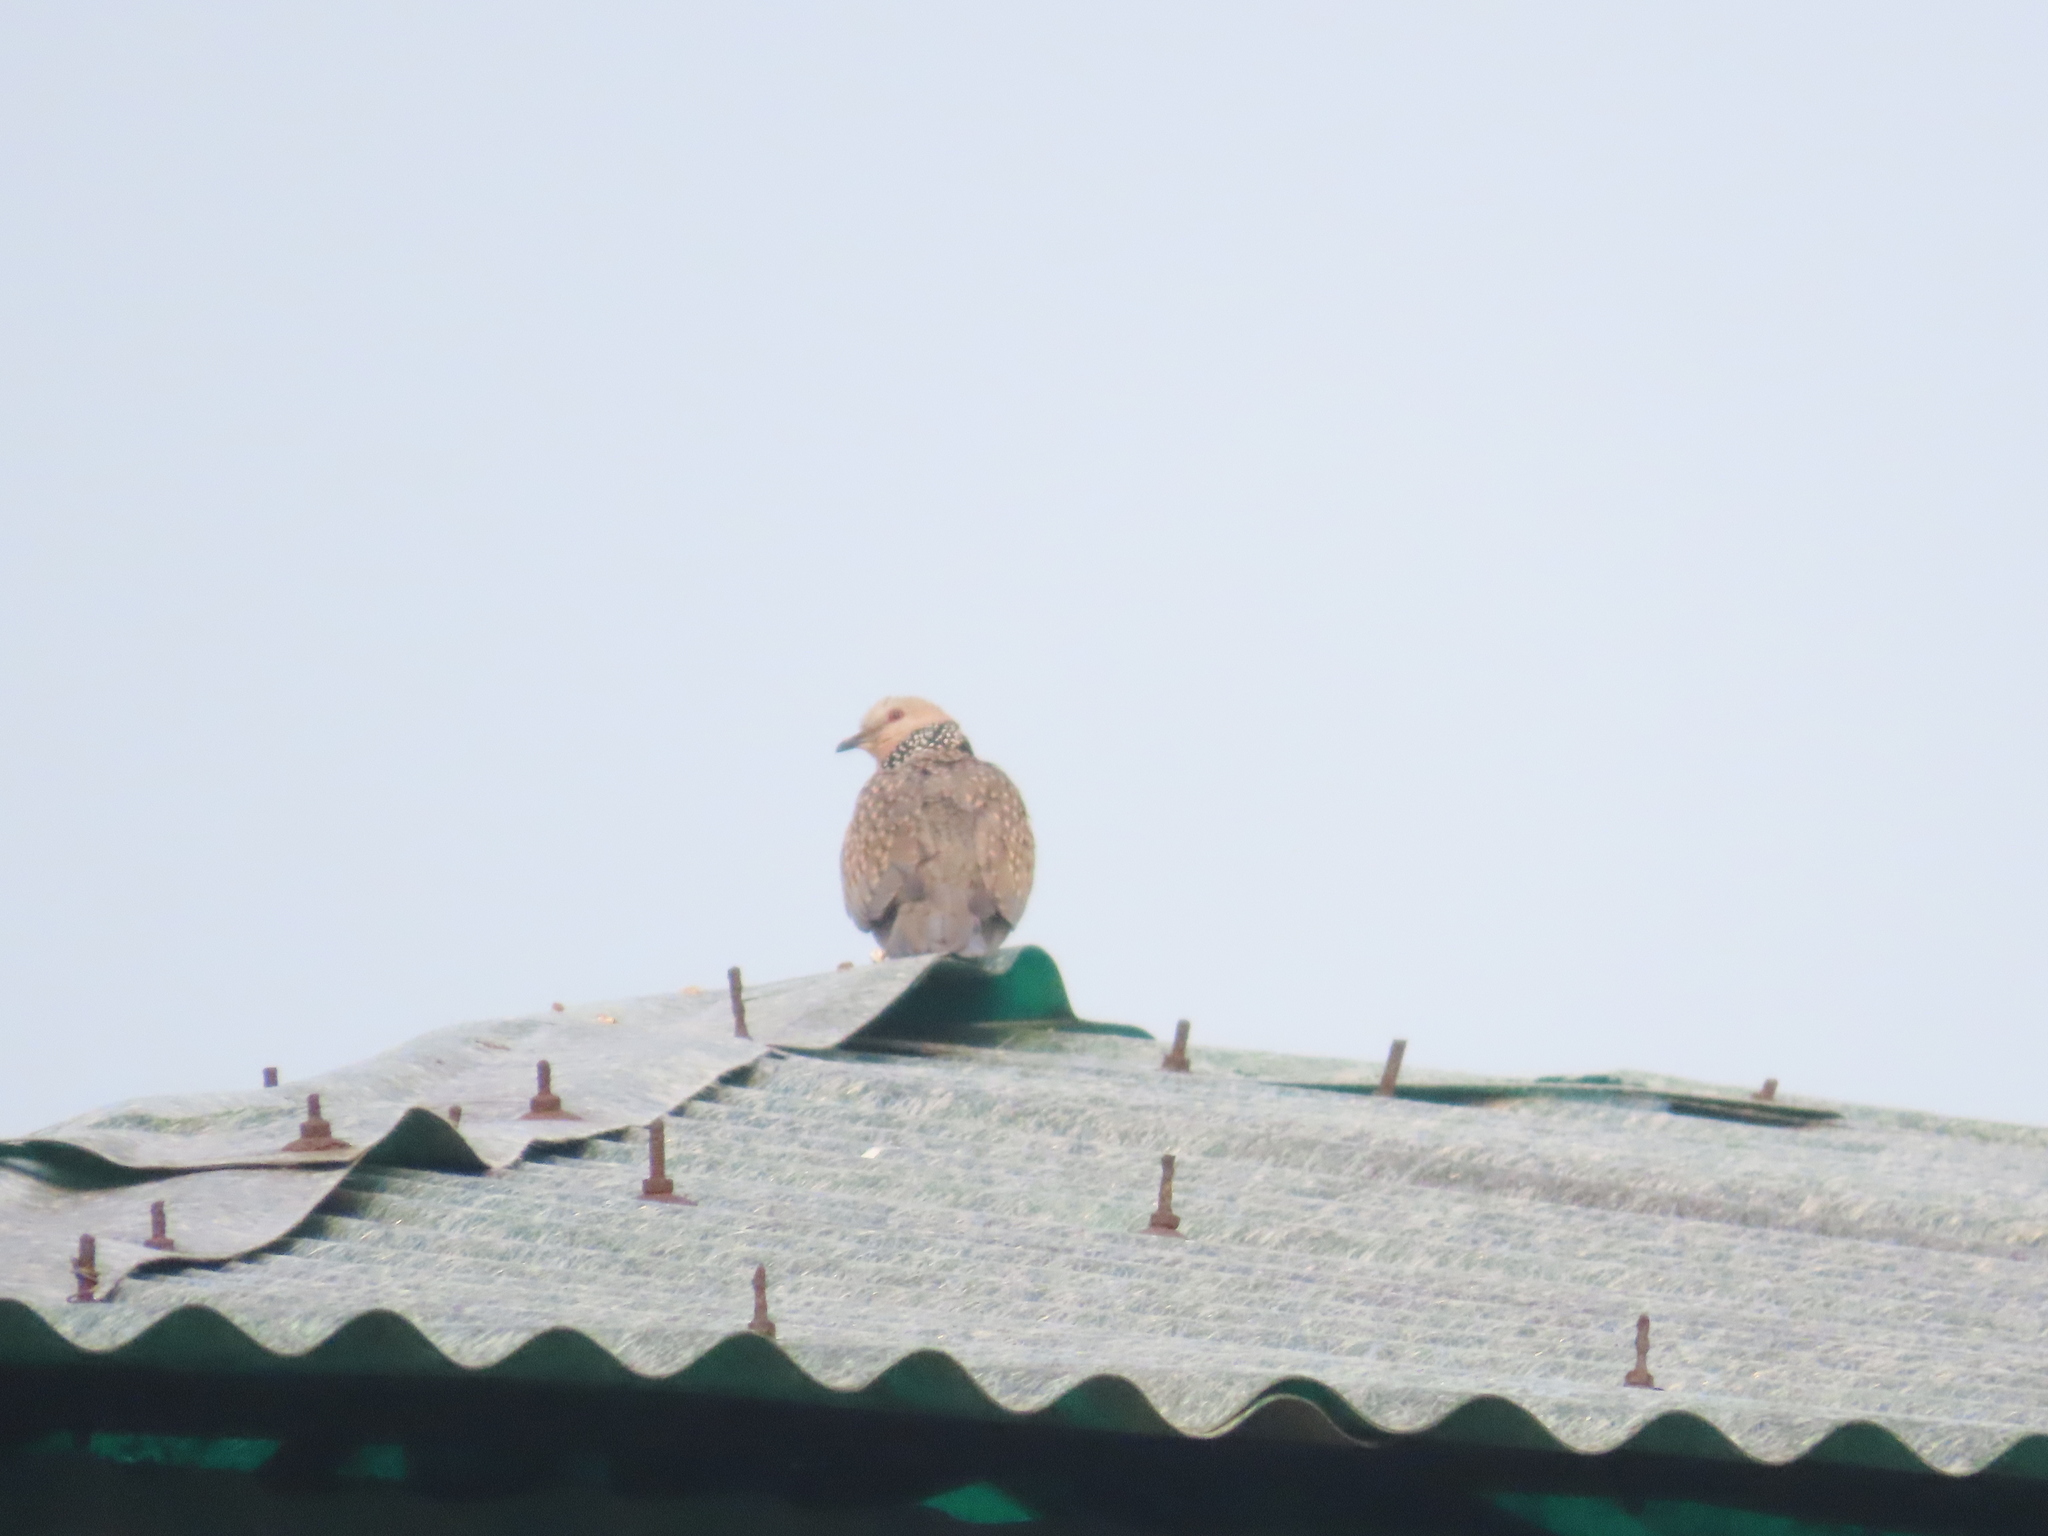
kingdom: Animalia
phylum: Chordata
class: Aves
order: Columbiformes
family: Columbidae
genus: Spilopelia
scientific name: Spilopelia chinensis
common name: Spotted dove
